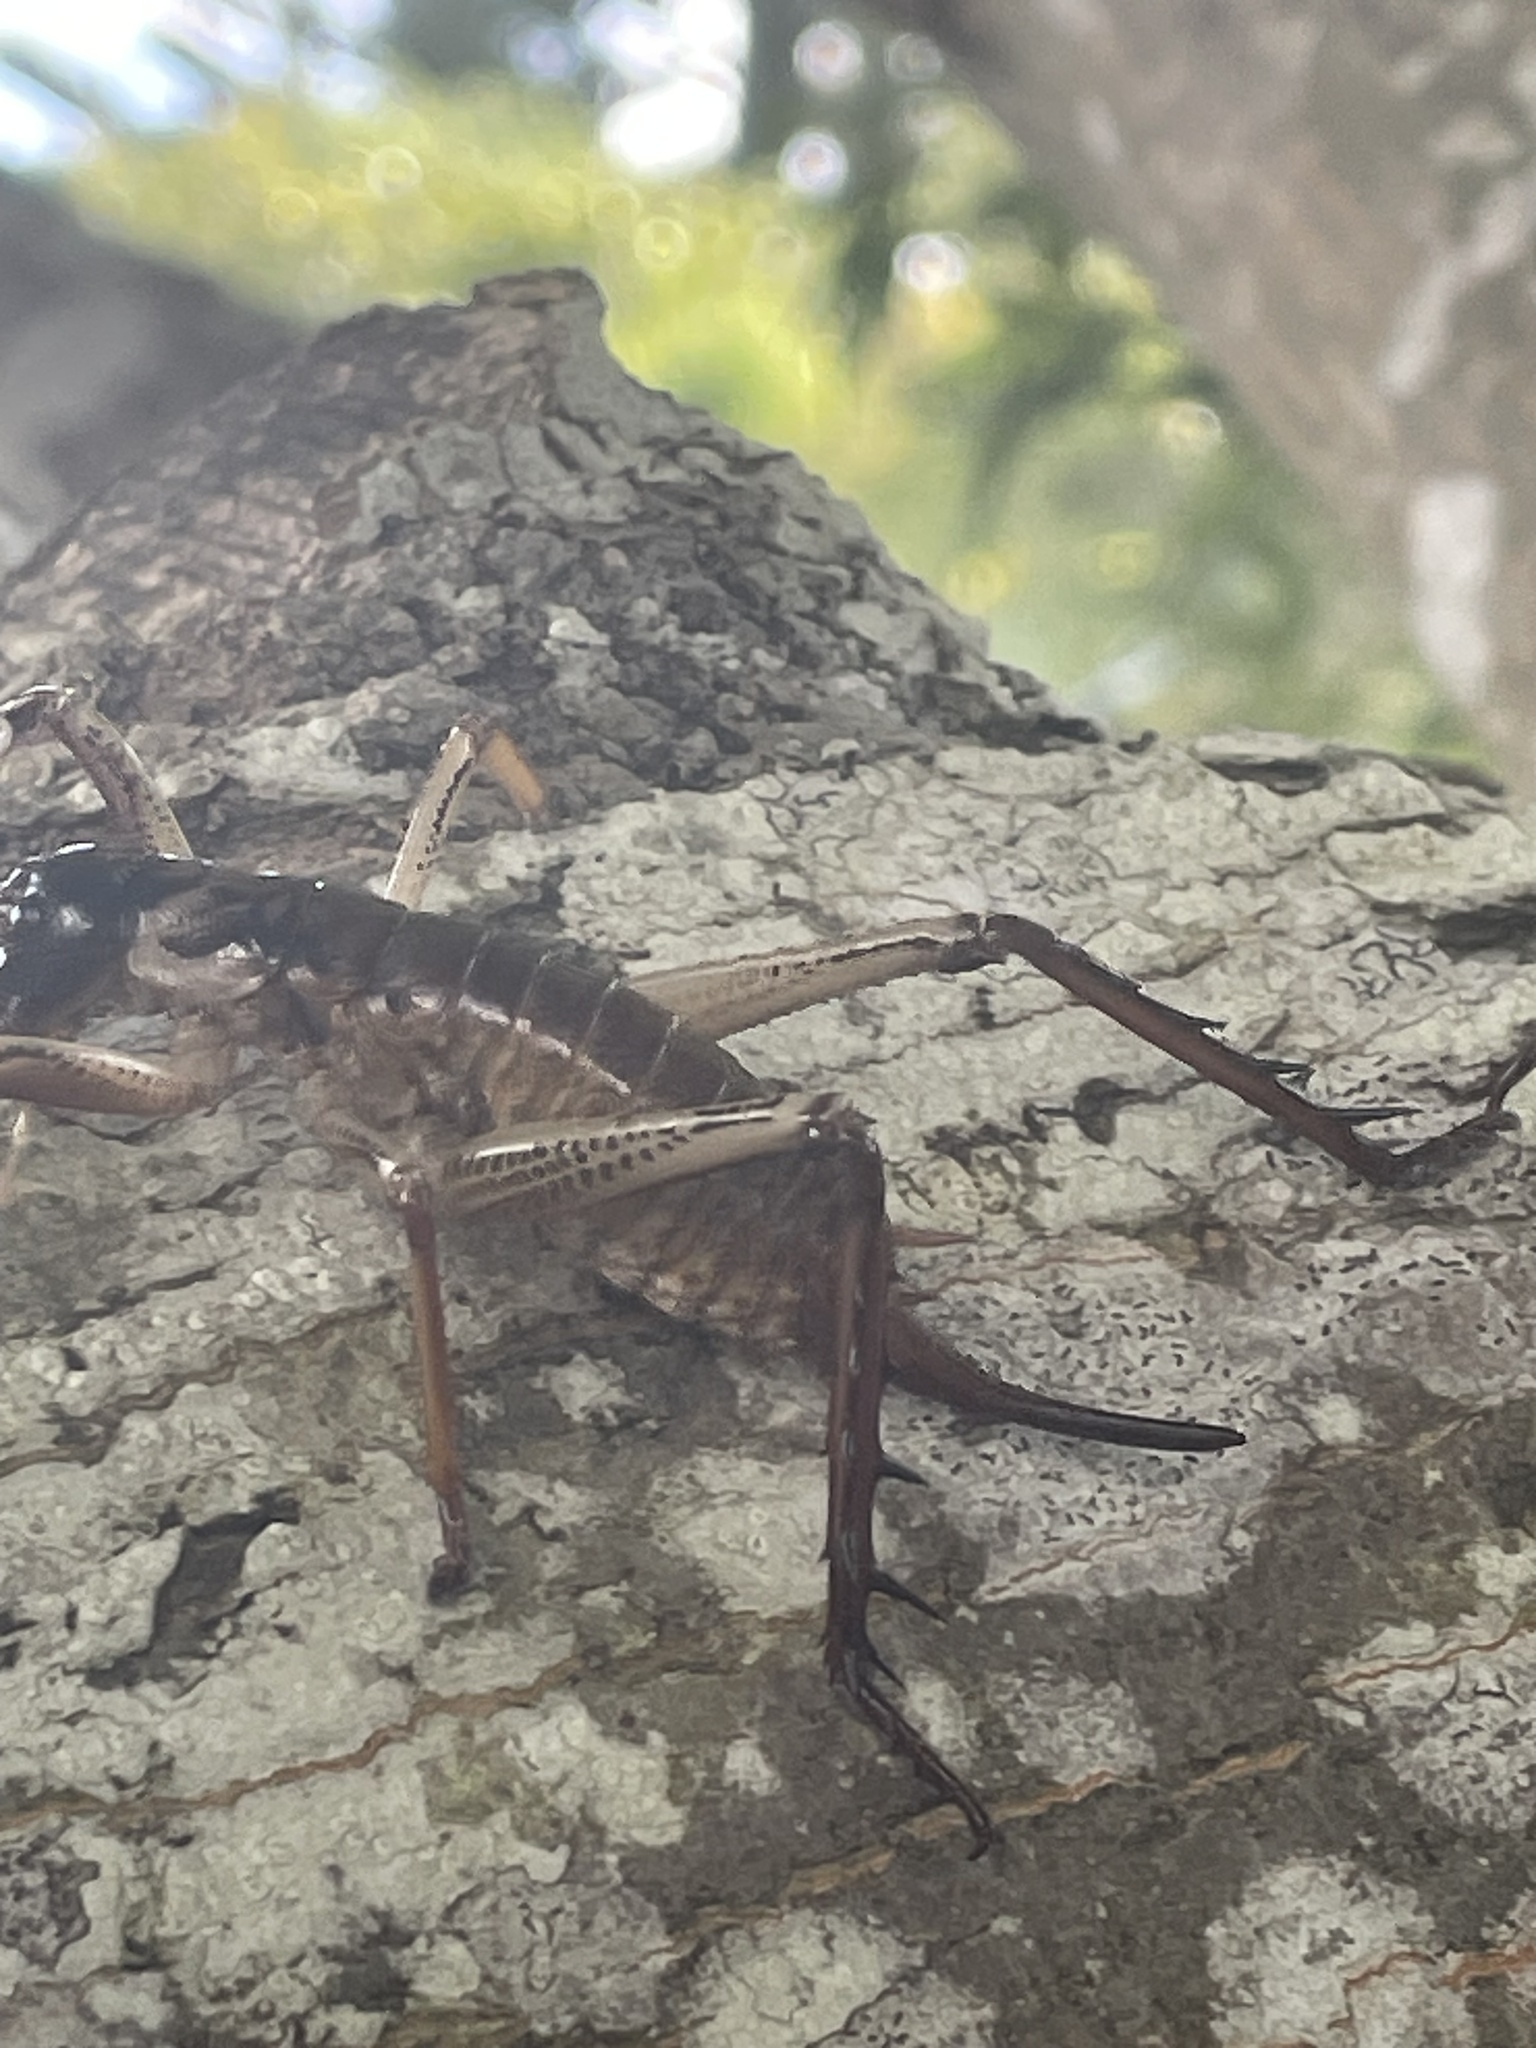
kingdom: Animalia
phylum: Arthropoda
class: Insecta
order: Orthoptera
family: Anostostomatidae
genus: Hemideina
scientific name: Hemideina thoracica
